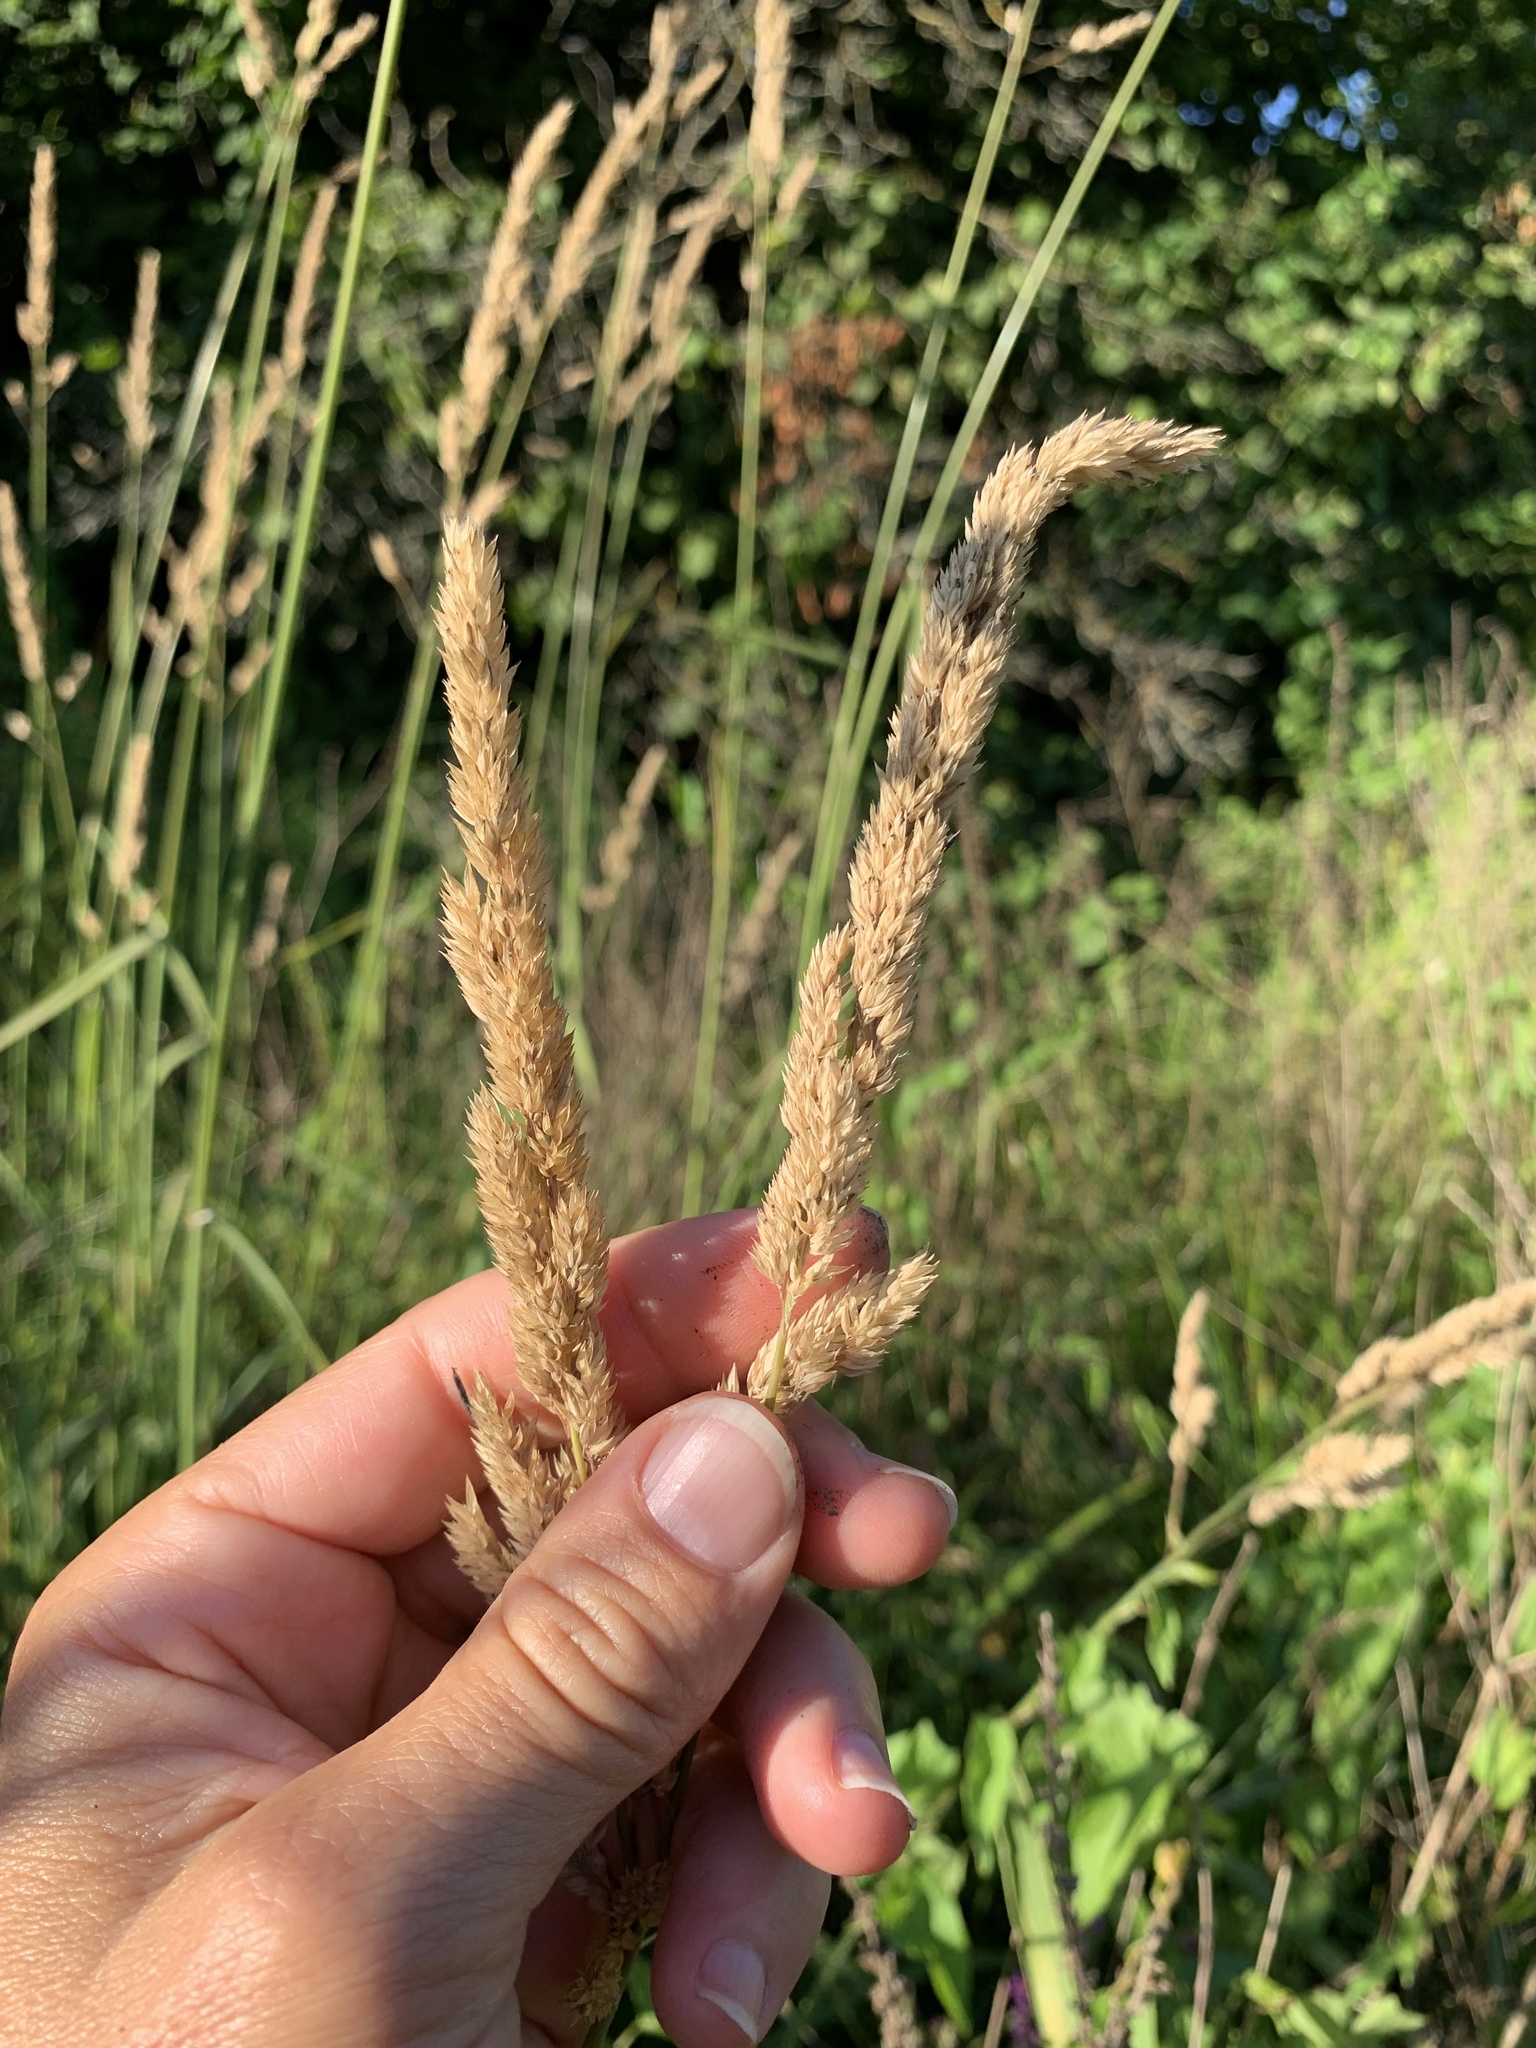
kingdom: Plantae
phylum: Tracheophyta
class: Liliopsida
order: Poales
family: Poaceae
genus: Phalaris
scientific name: Phalaris arundinacea
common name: Reed canary-grass
